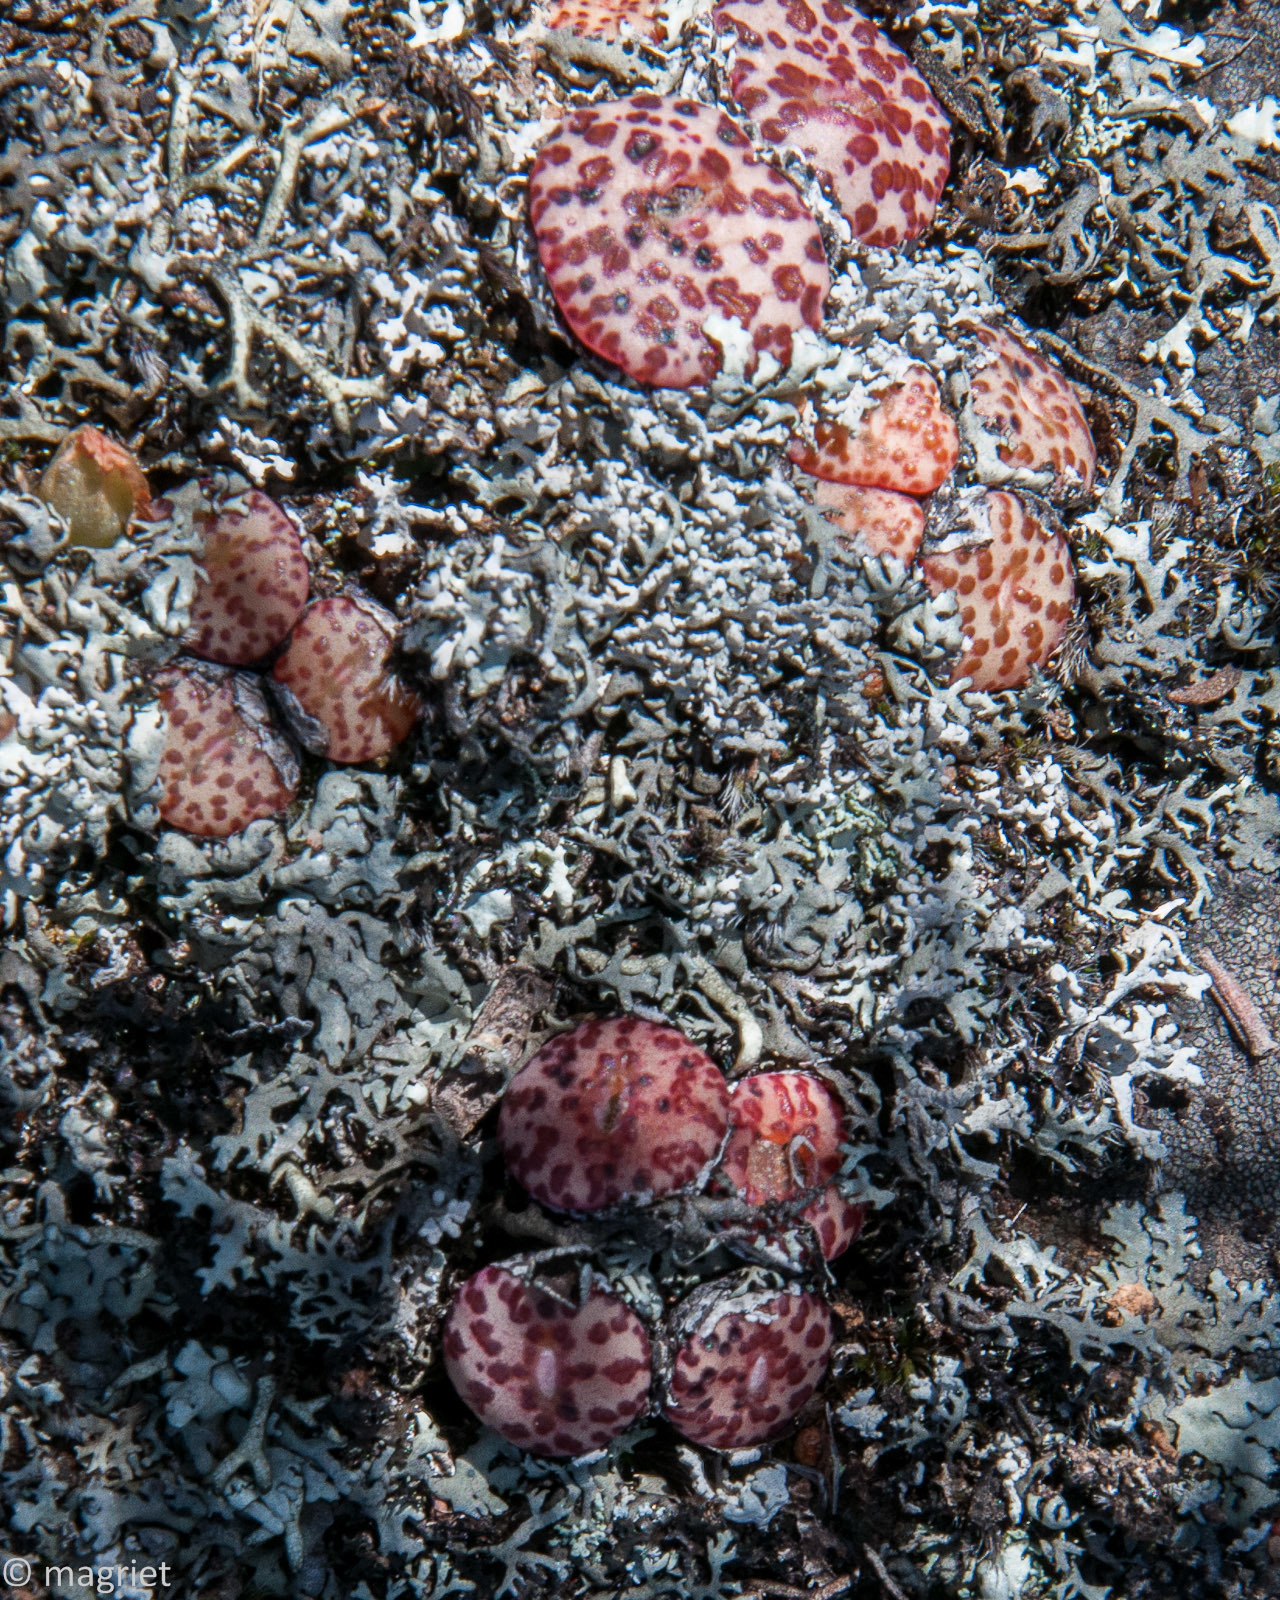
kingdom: Plantae
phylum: Tracheophyta
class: Magnoliopsida
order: Caryophyllales
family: Aizoaceae
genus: Conophytum
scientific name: Conophytum obcordellum
